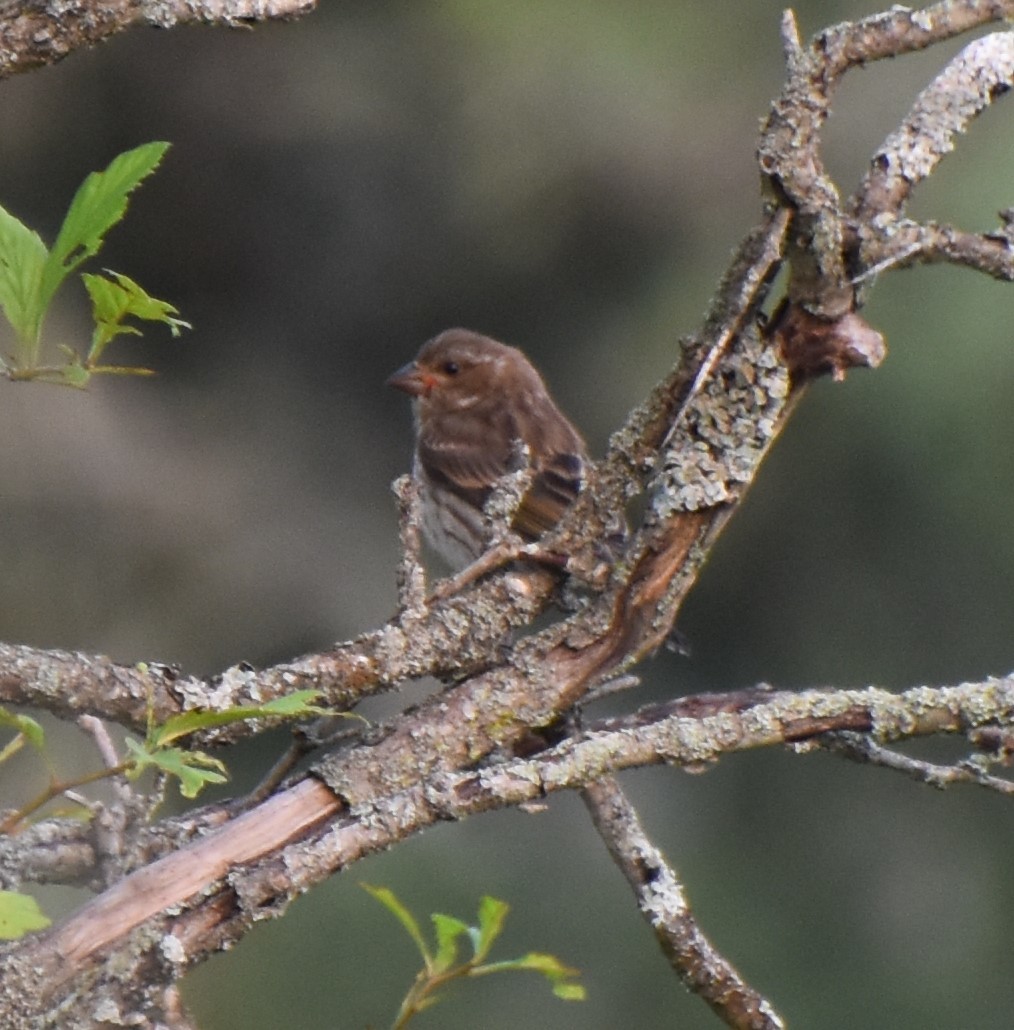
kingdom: Animalia
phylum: Chordata
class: Aves
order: Passeriformes
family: Fringillidae
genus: Haemorhous
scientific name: Haemorhous purpureus
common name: Purple finch
